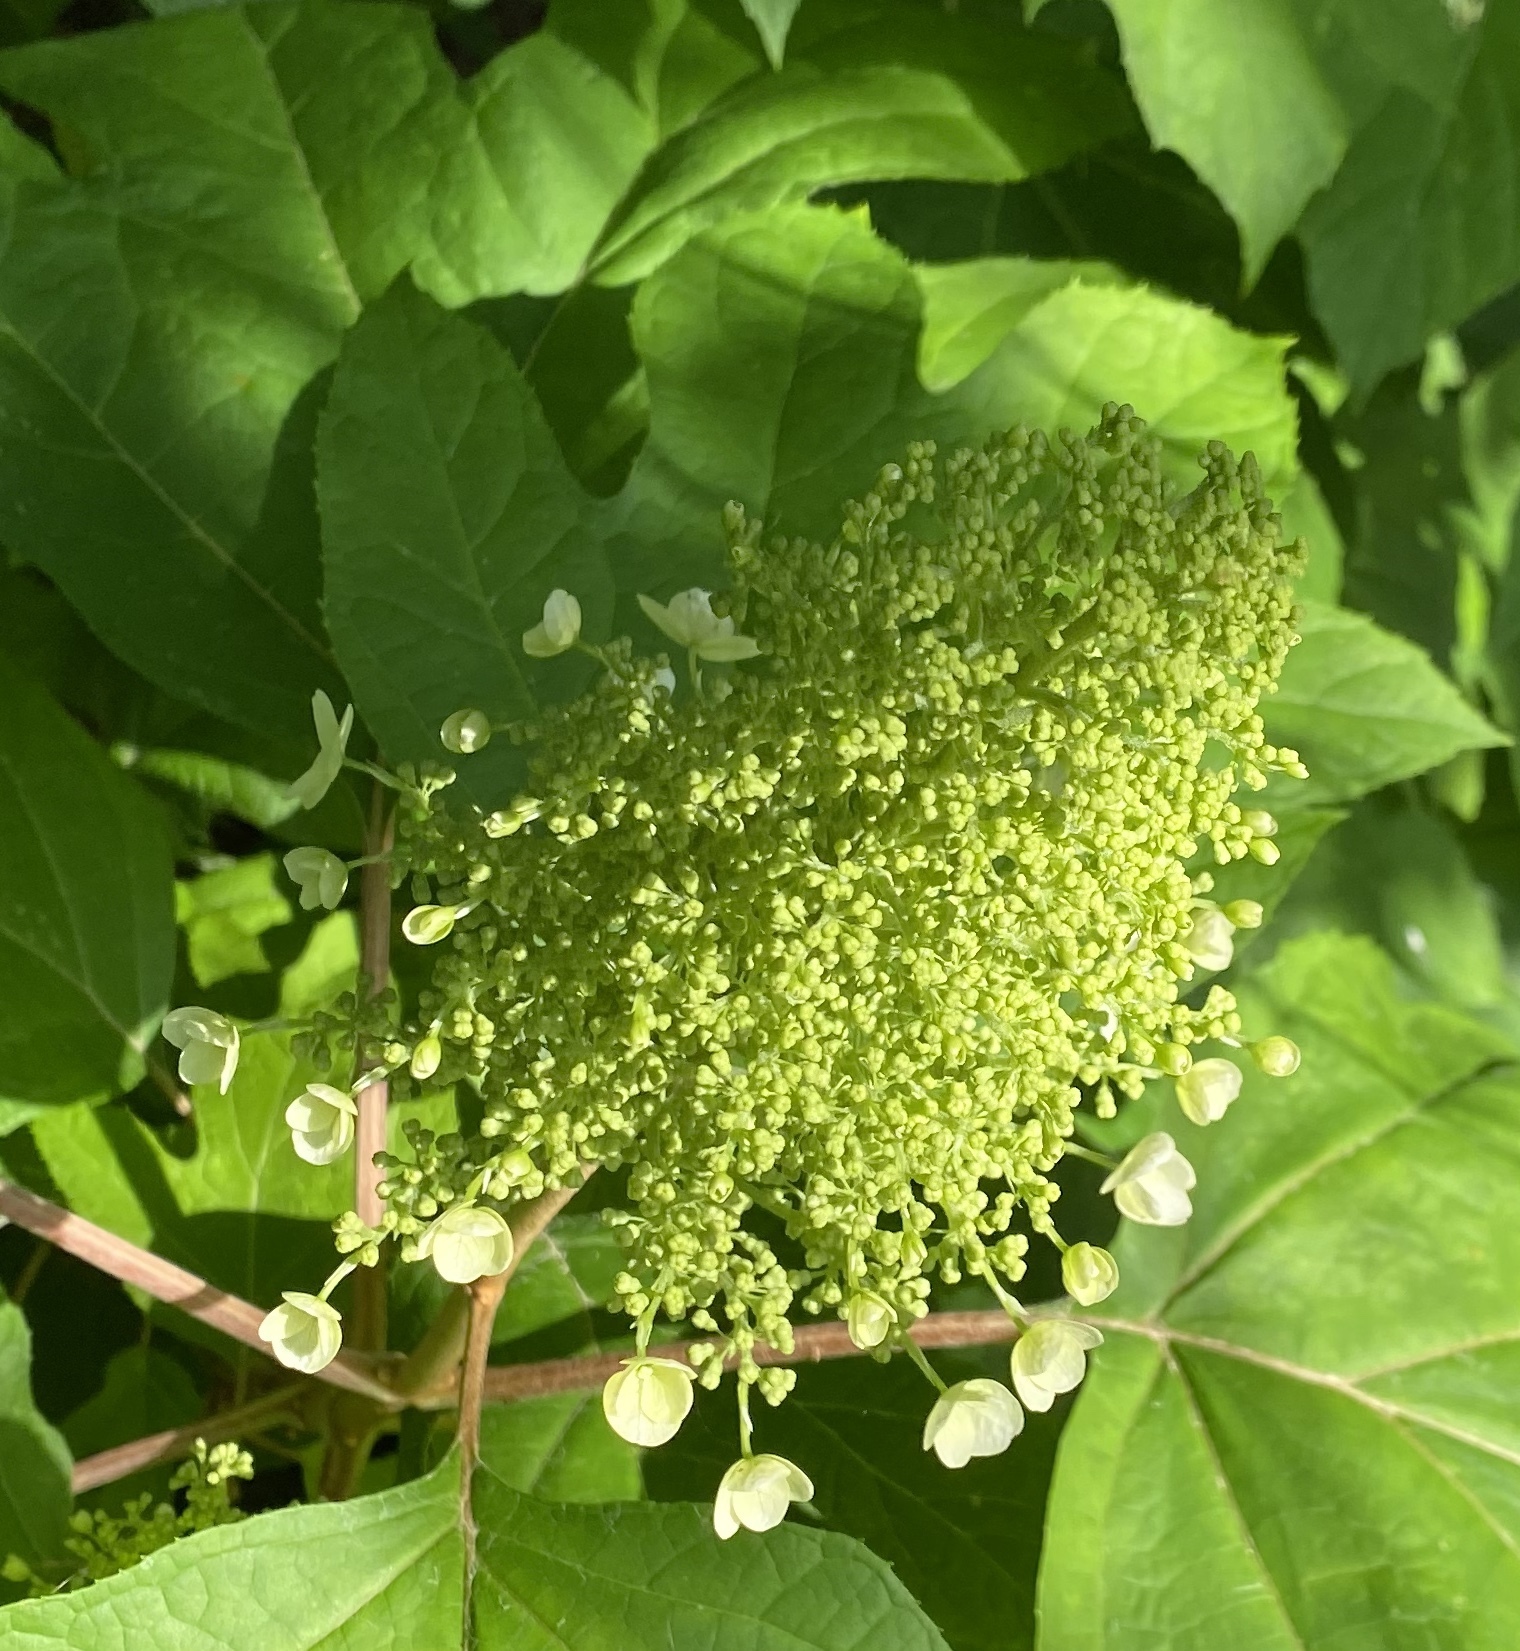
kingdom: Plantae
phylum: Tracheophyta
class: Magnoliopsida
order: Cornales
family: Hydrangeaceae
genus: Hydrangea
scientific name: Hydrangea quercifolia
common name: Oak-leaf hydrangea
